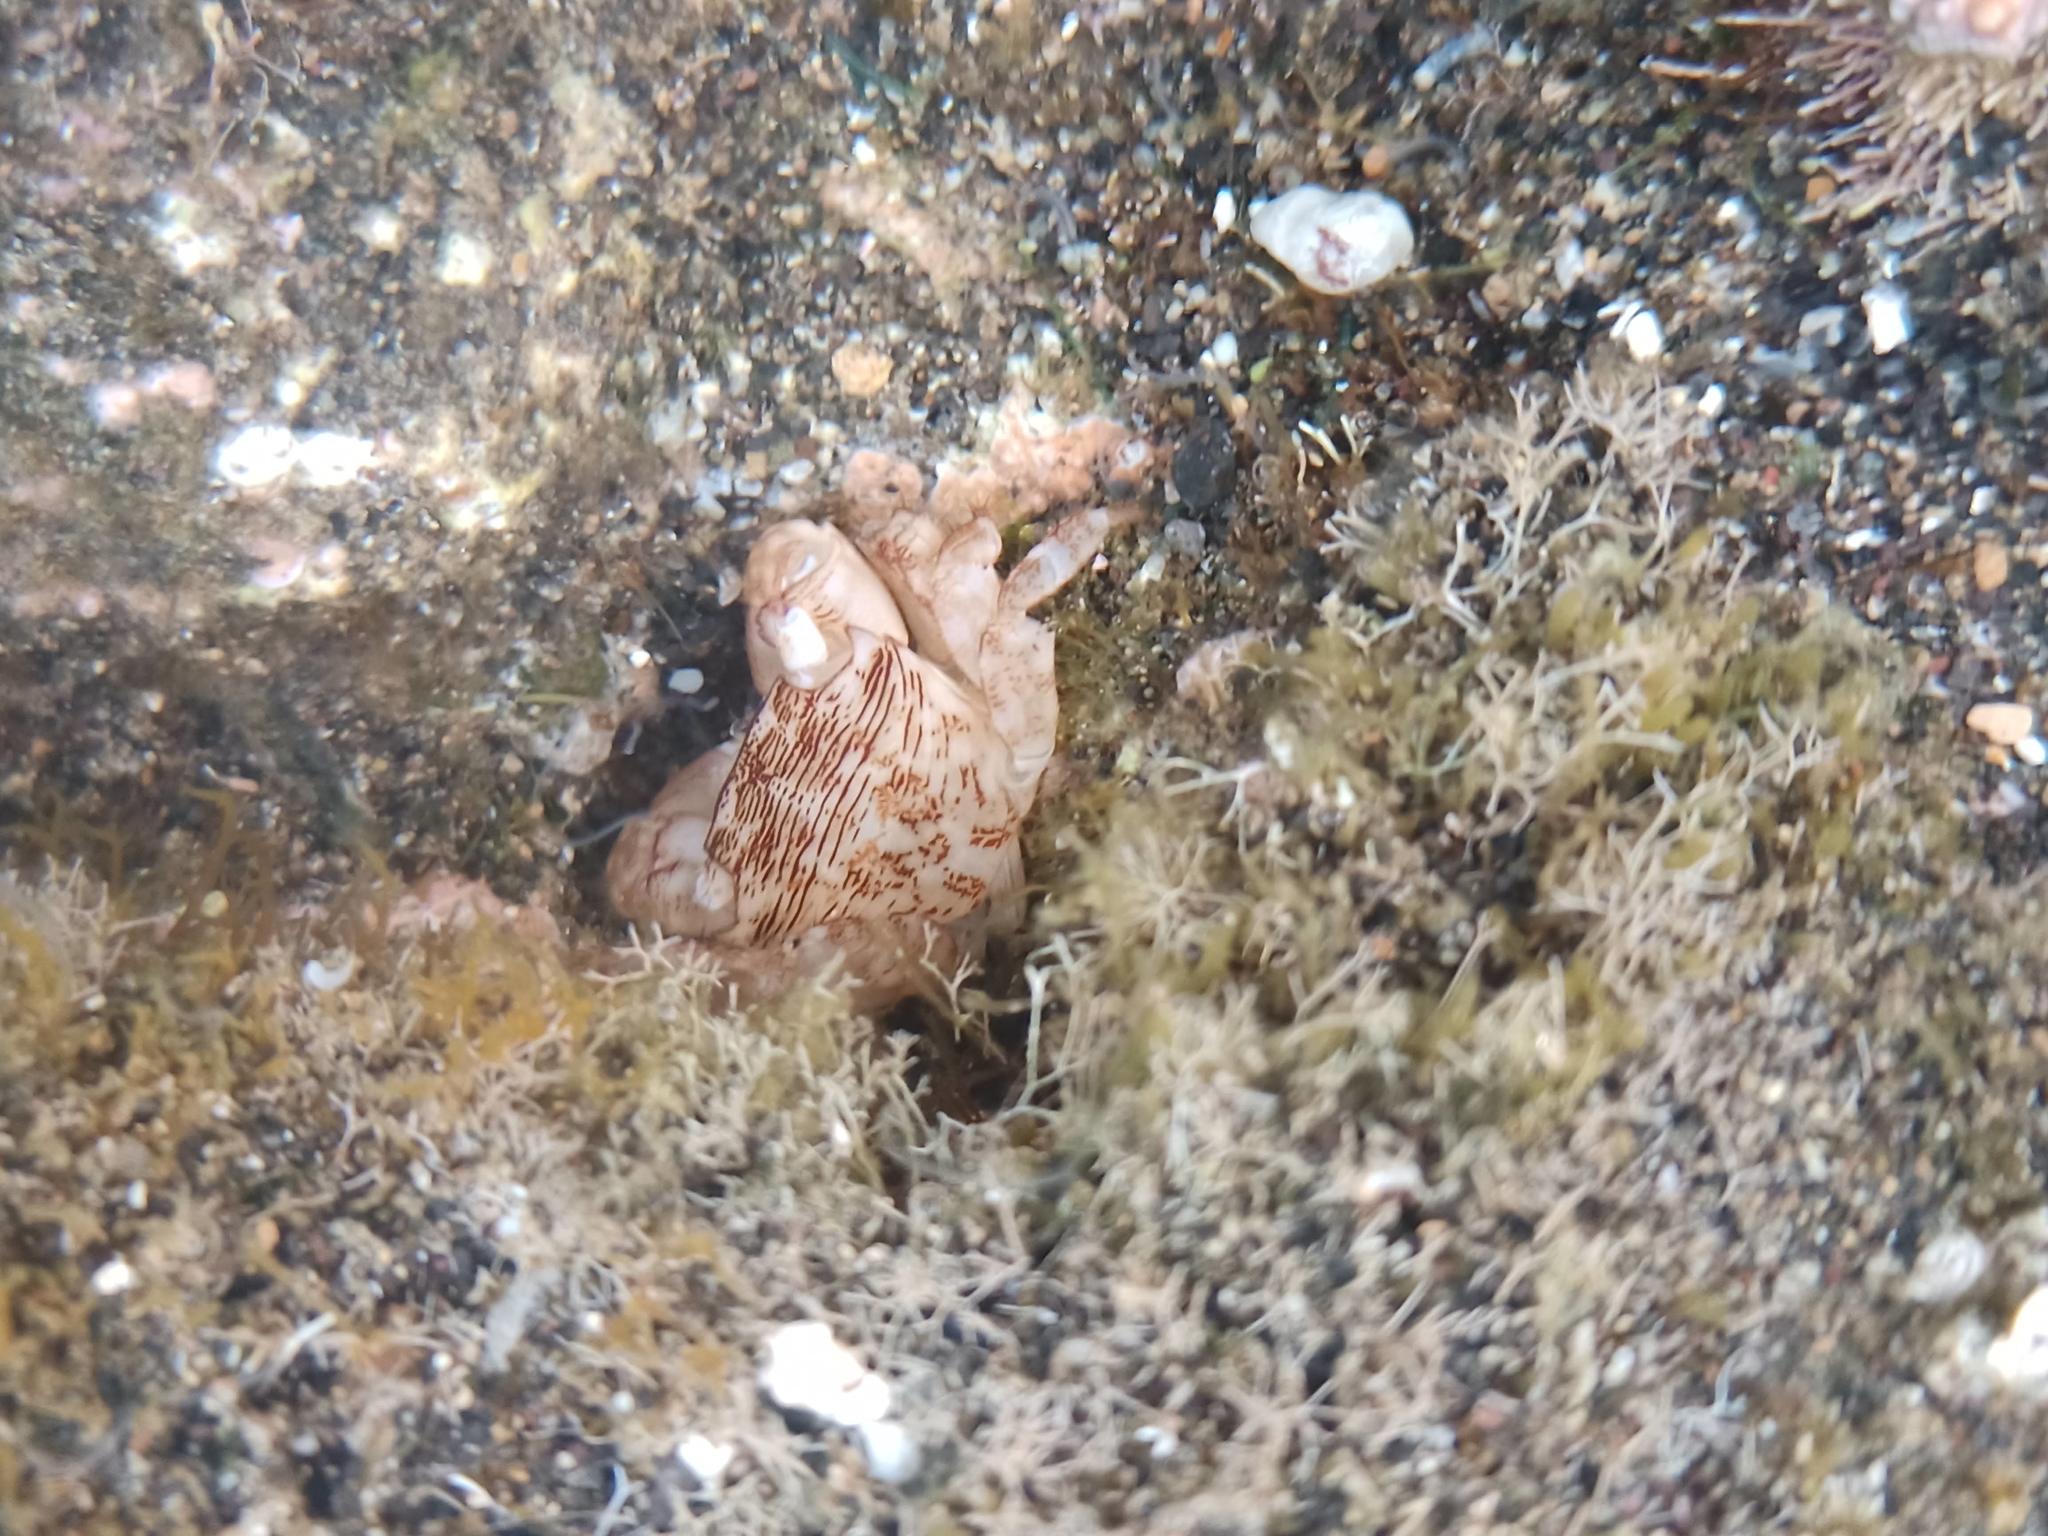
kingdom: Animalia
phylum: Arthropoda
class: Malacostraca
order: Decapoda
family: Grapsidae
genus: Pachygrapsus
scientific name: Pachygrapsus transversus
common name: Mottled shore crab
